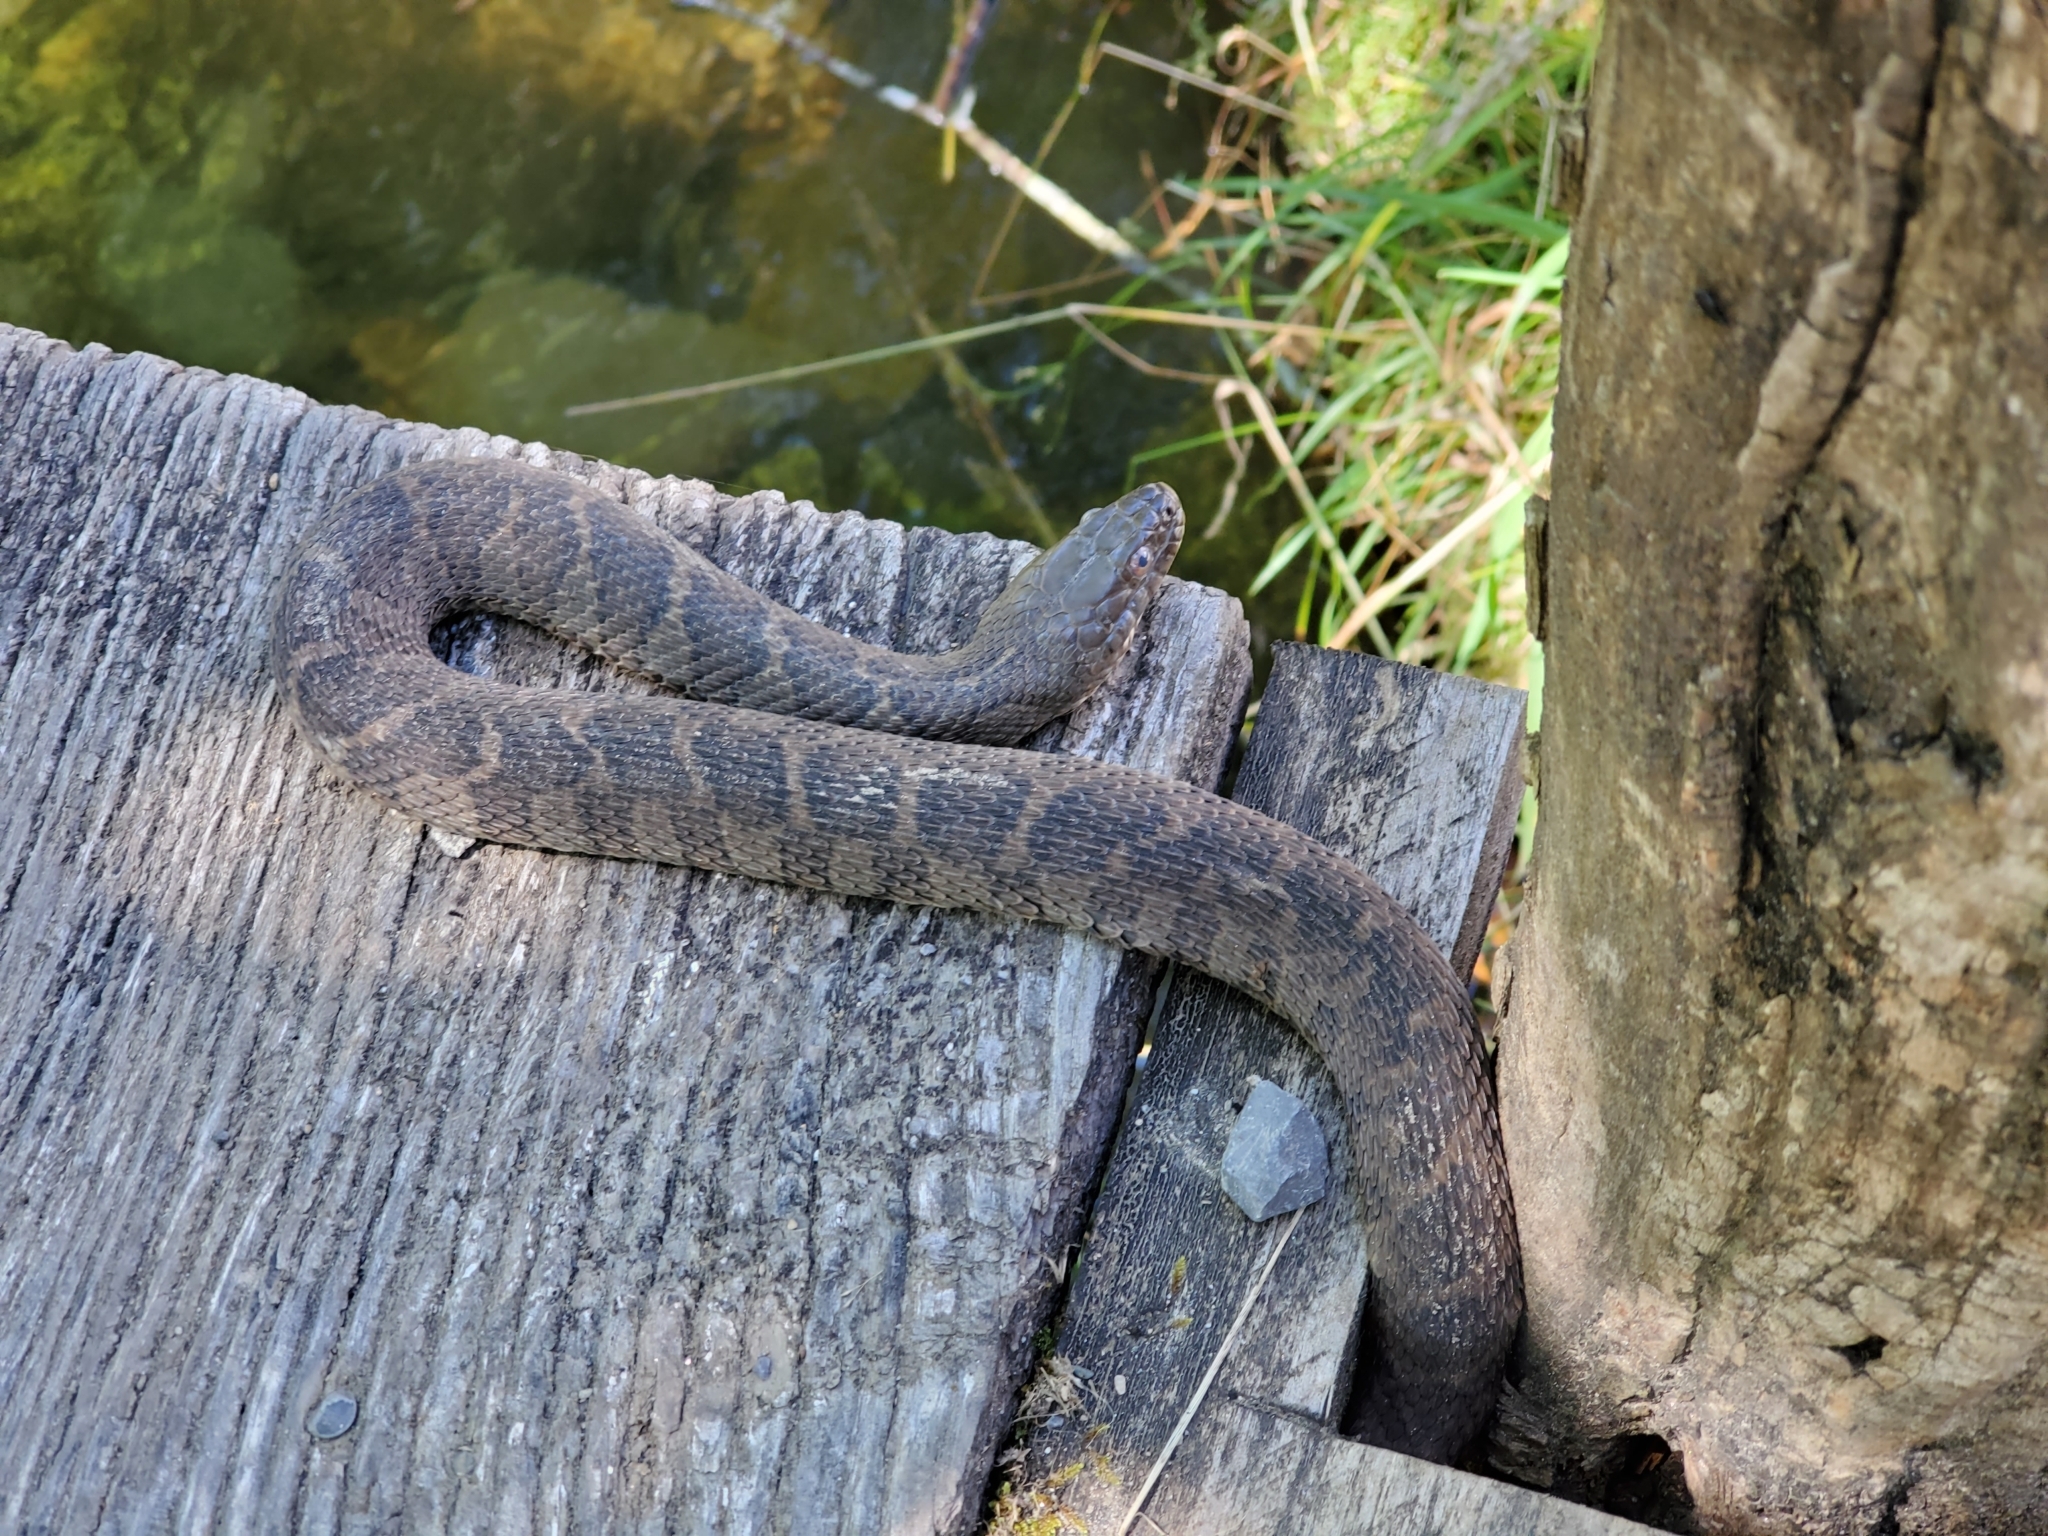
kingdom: Animalia
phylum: Chordata
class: Squamata
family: Colubridae
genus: Nerodia
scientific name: Nerodia sipedon
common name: Northern water snake
